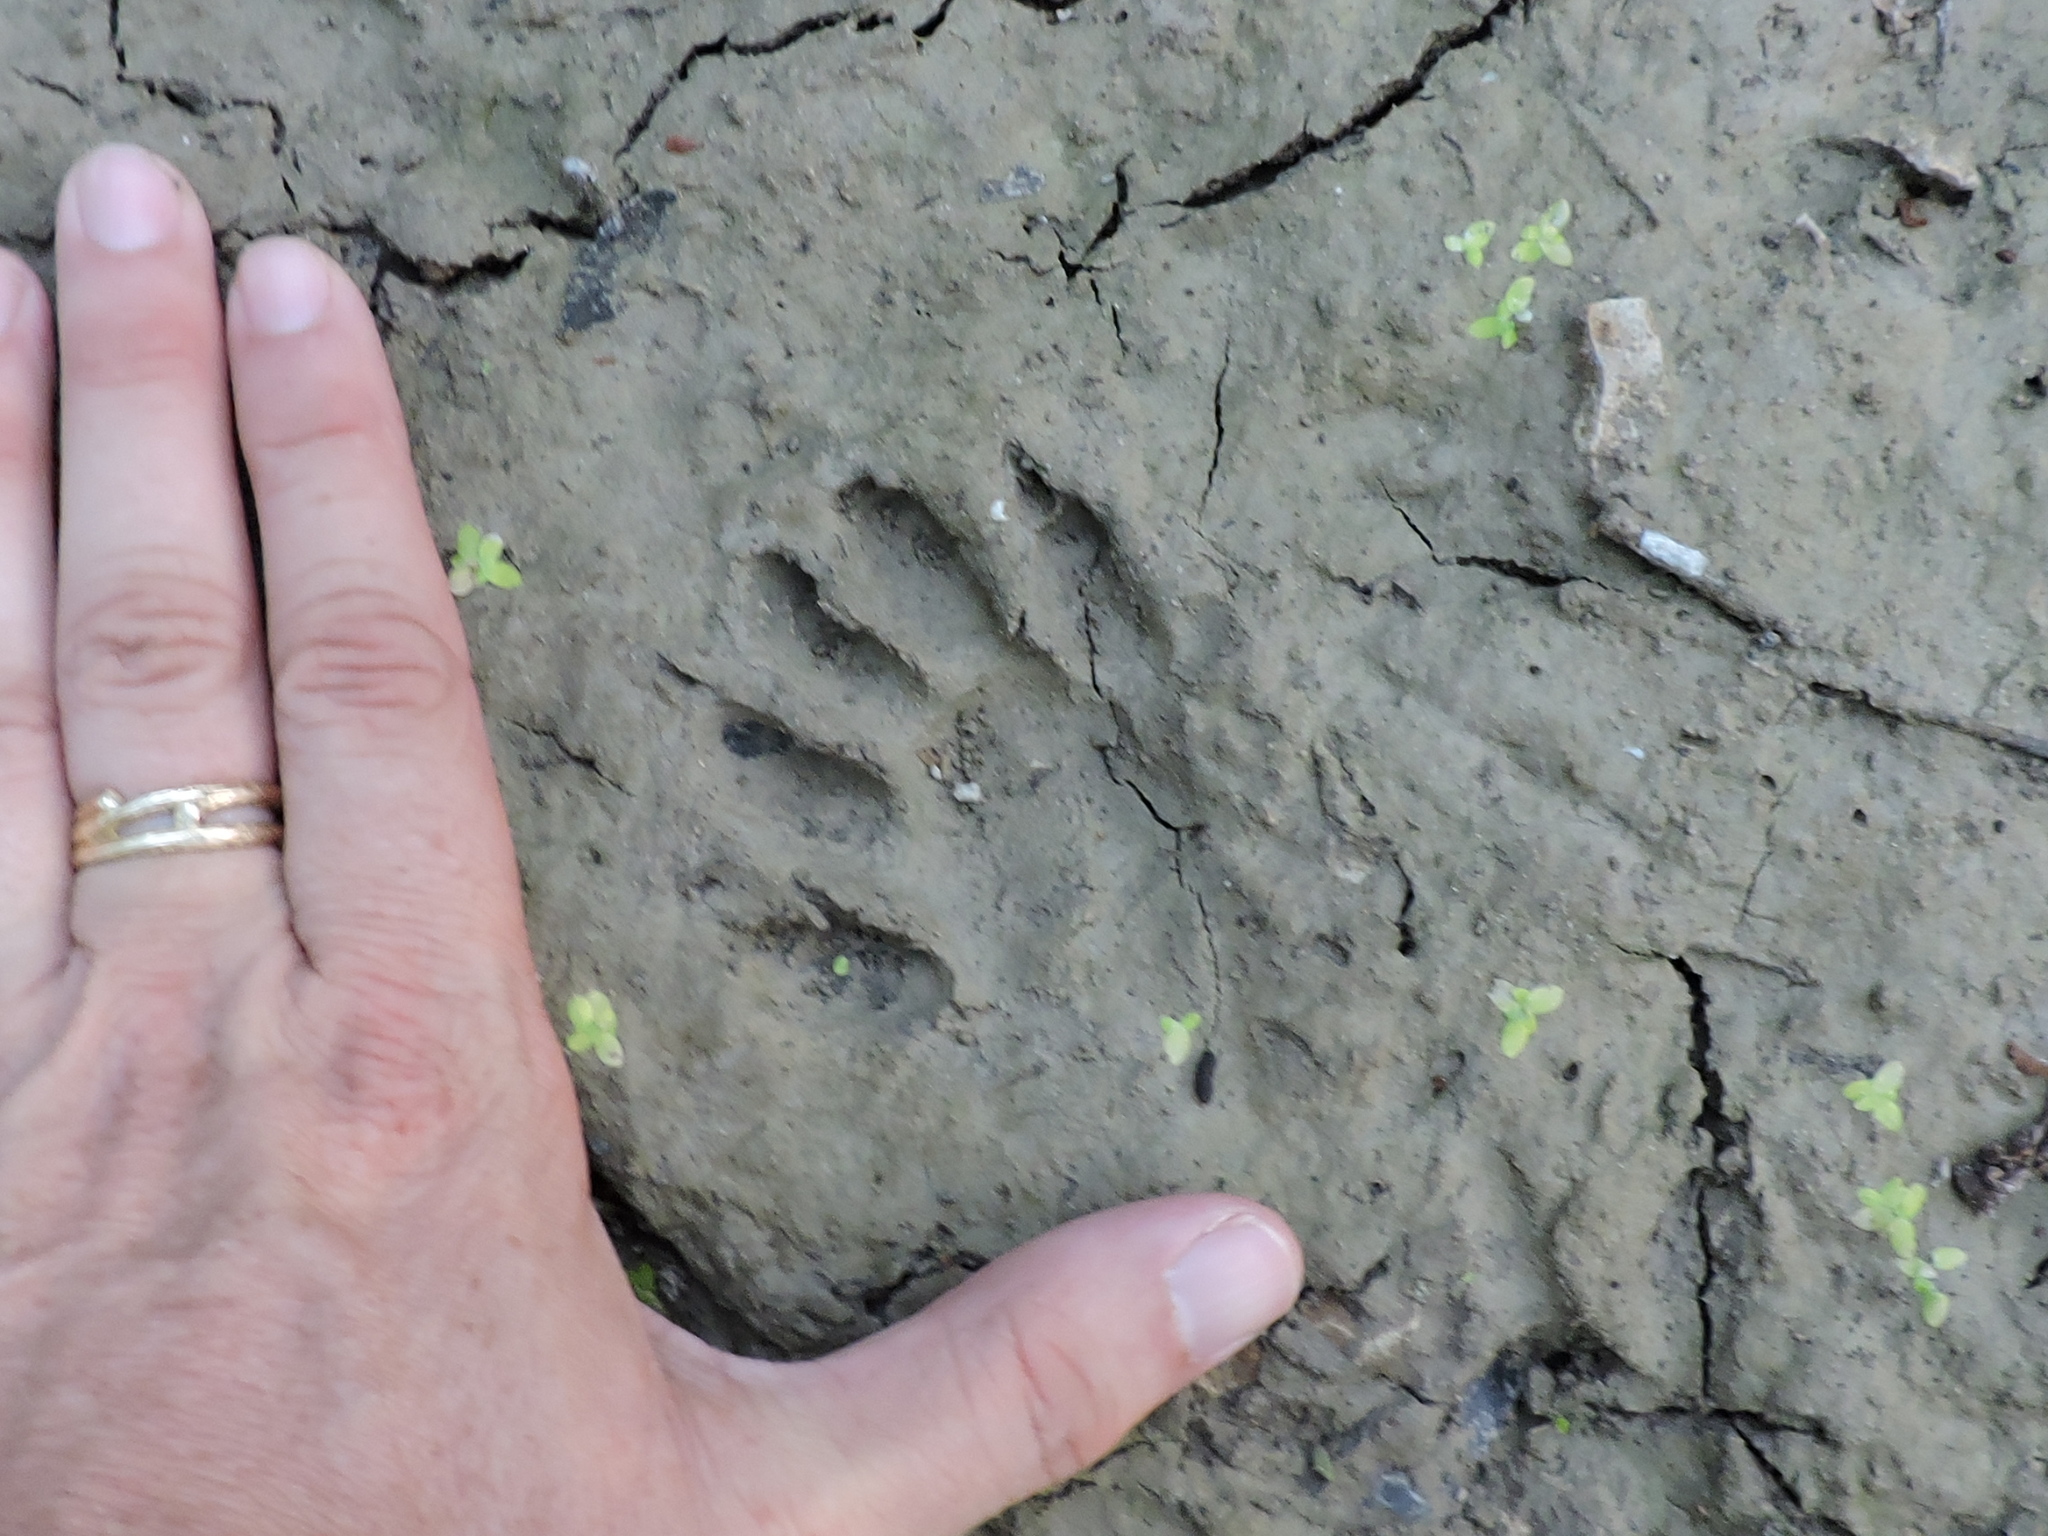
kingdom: Animalia
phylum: Chordata
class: Mammalia
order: Carnivora
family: Procyonidae
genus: Procyon
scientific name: Procyon lotor
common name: Raccoon
